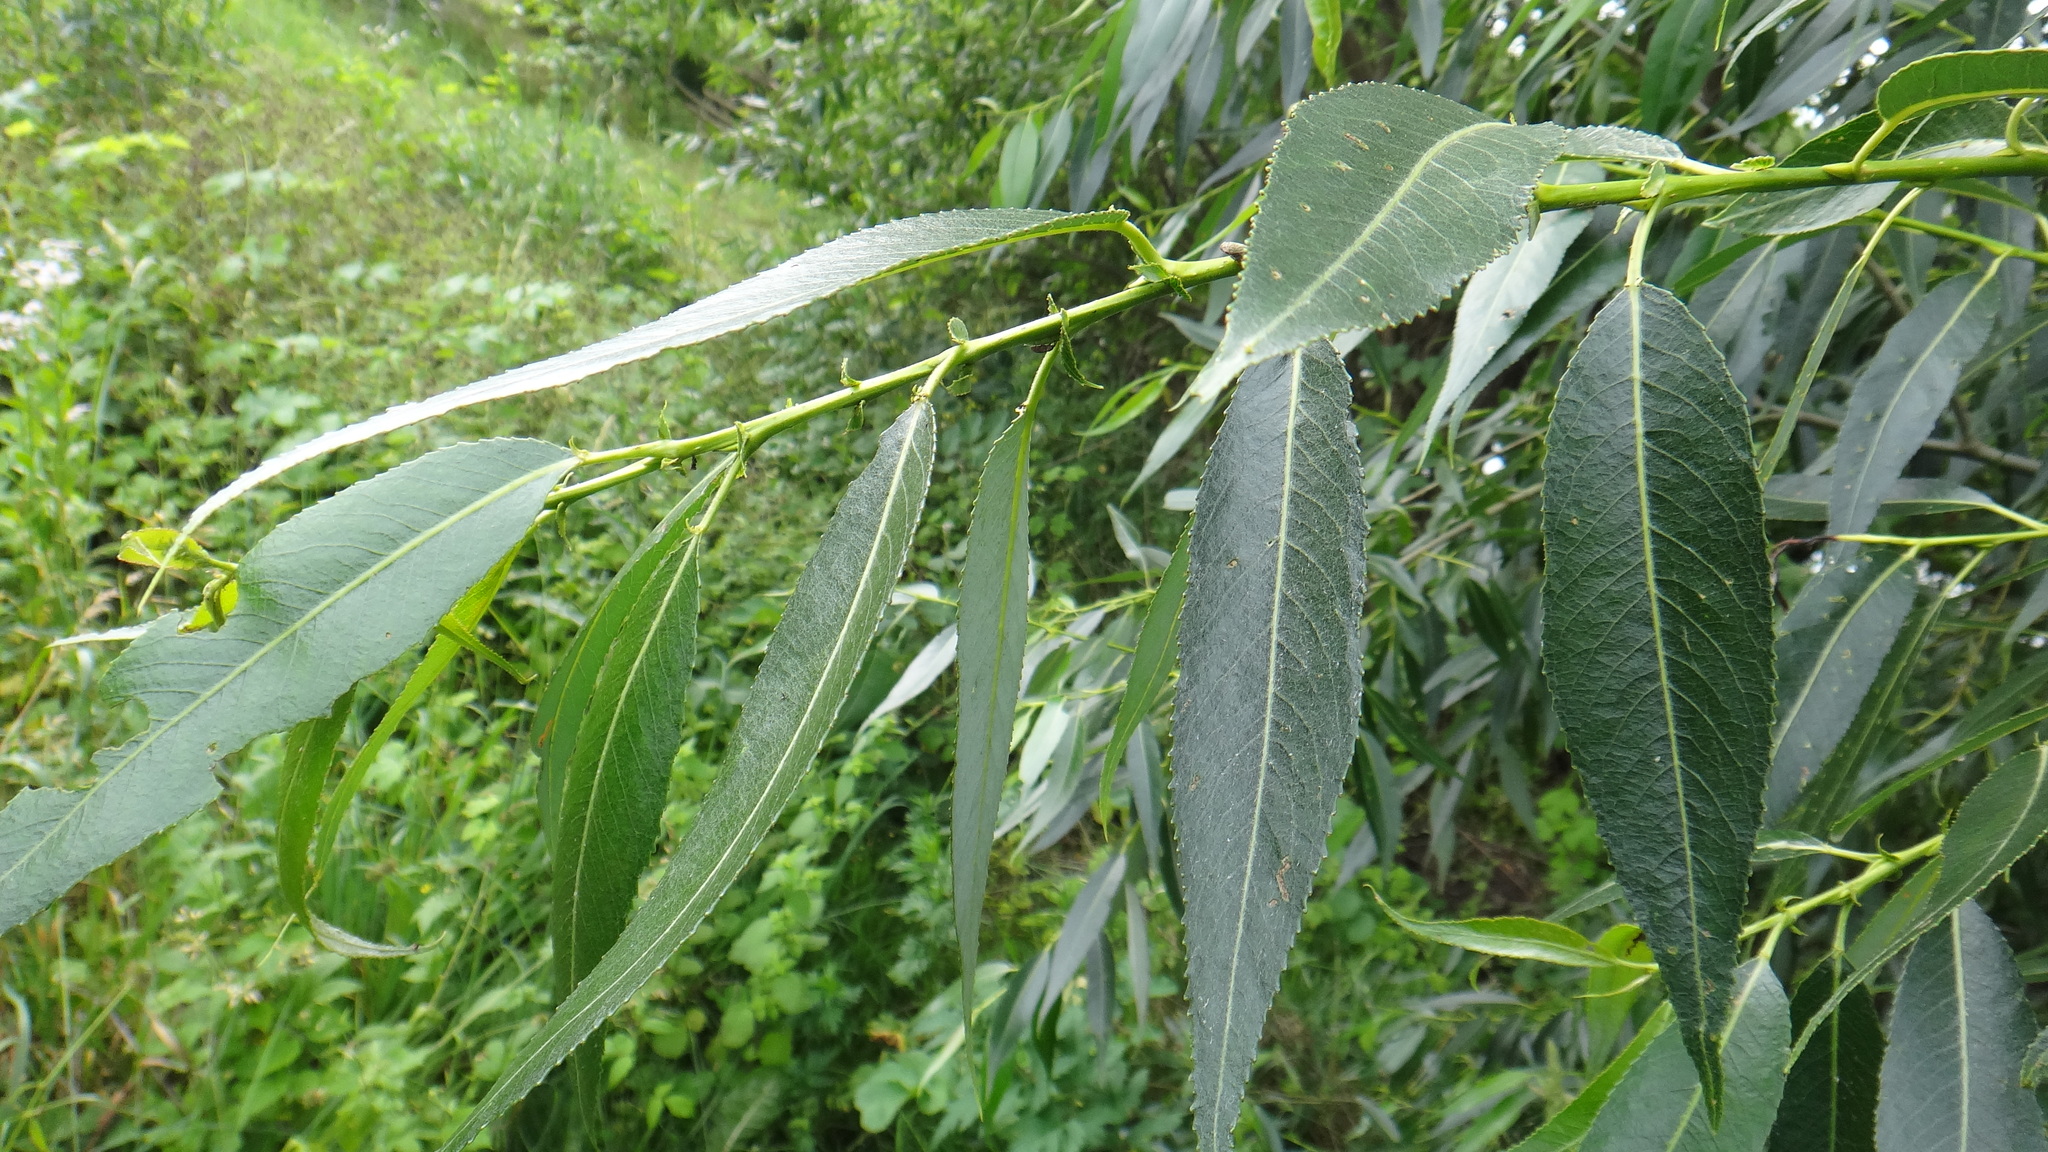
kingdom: Plantae
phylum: Tracheophyta
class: Magnoliopsida
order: Malpighiales
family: Salicaceae
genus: Salix
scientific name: Salix fragilis
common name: Crack willow
